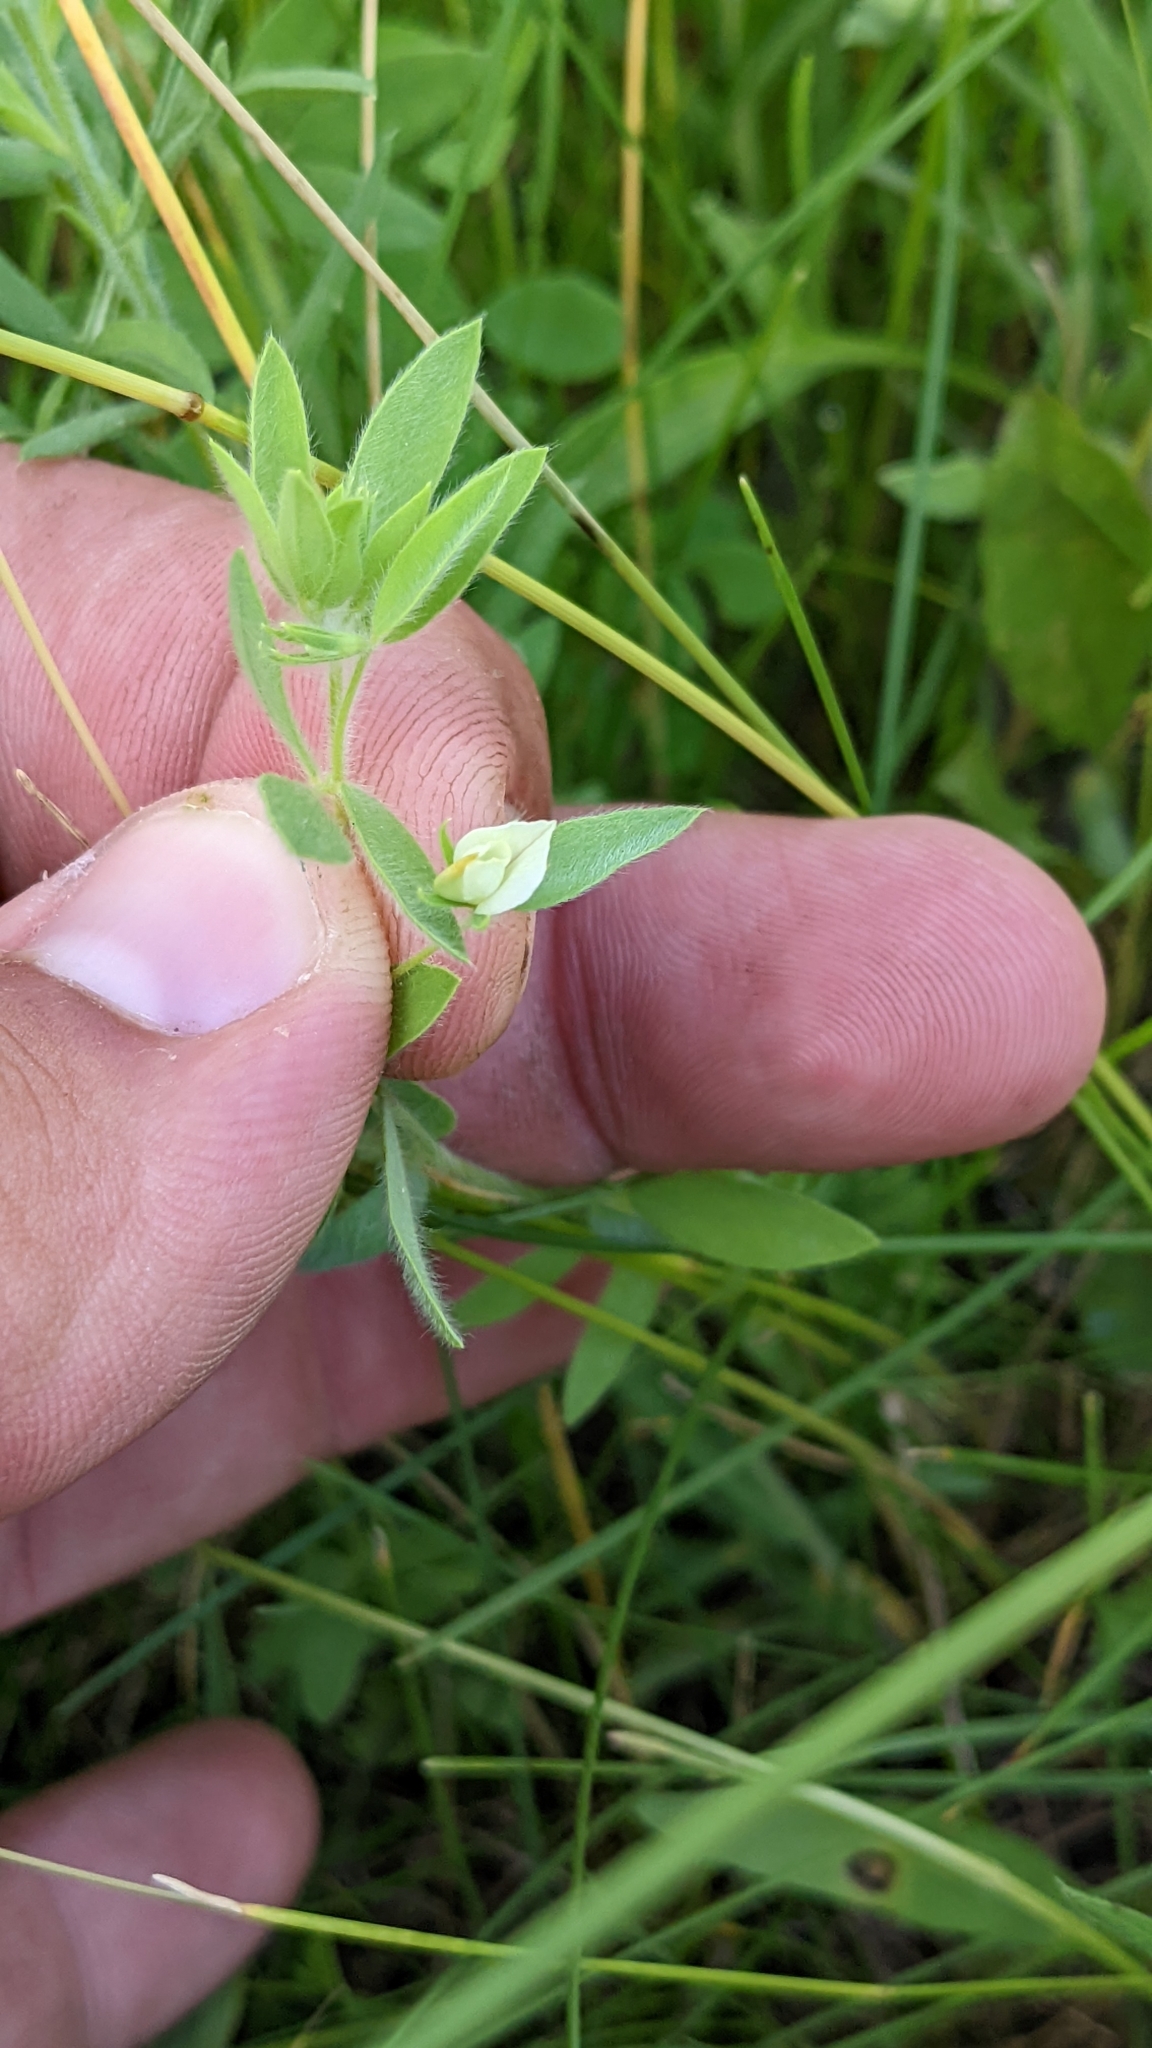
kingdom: Plantae
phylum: Tracheophyta
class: Magnoliopsida
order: Fabales
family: Fabaceae
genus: Acmispon
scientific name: Acmispon americanus
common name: American bird's-foot trefoil
